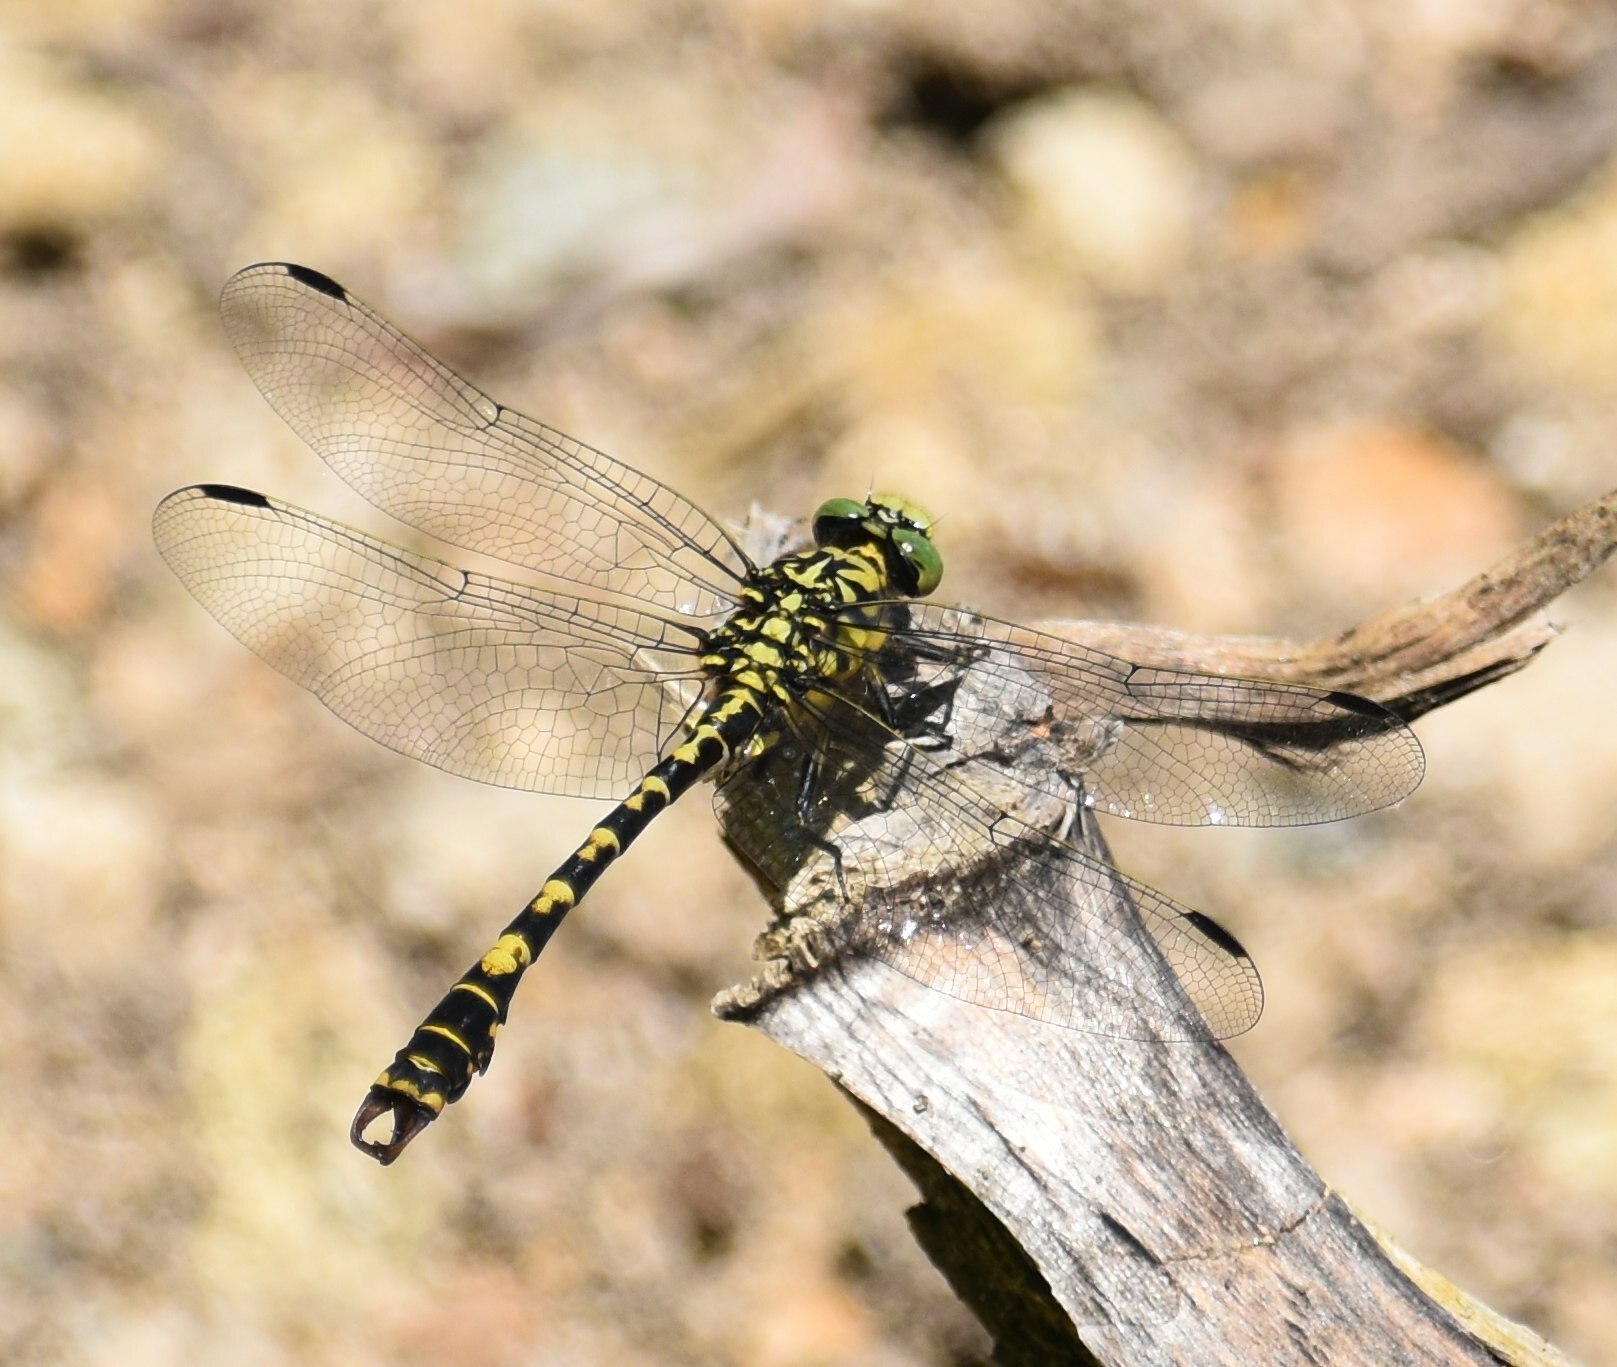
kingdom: Animalia
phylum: Arthropoda
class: Insecta
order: Odonata
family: Gomphidae
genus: Onychogomphus
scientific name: Onychogomphus forcipatus
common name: Small pincertail
